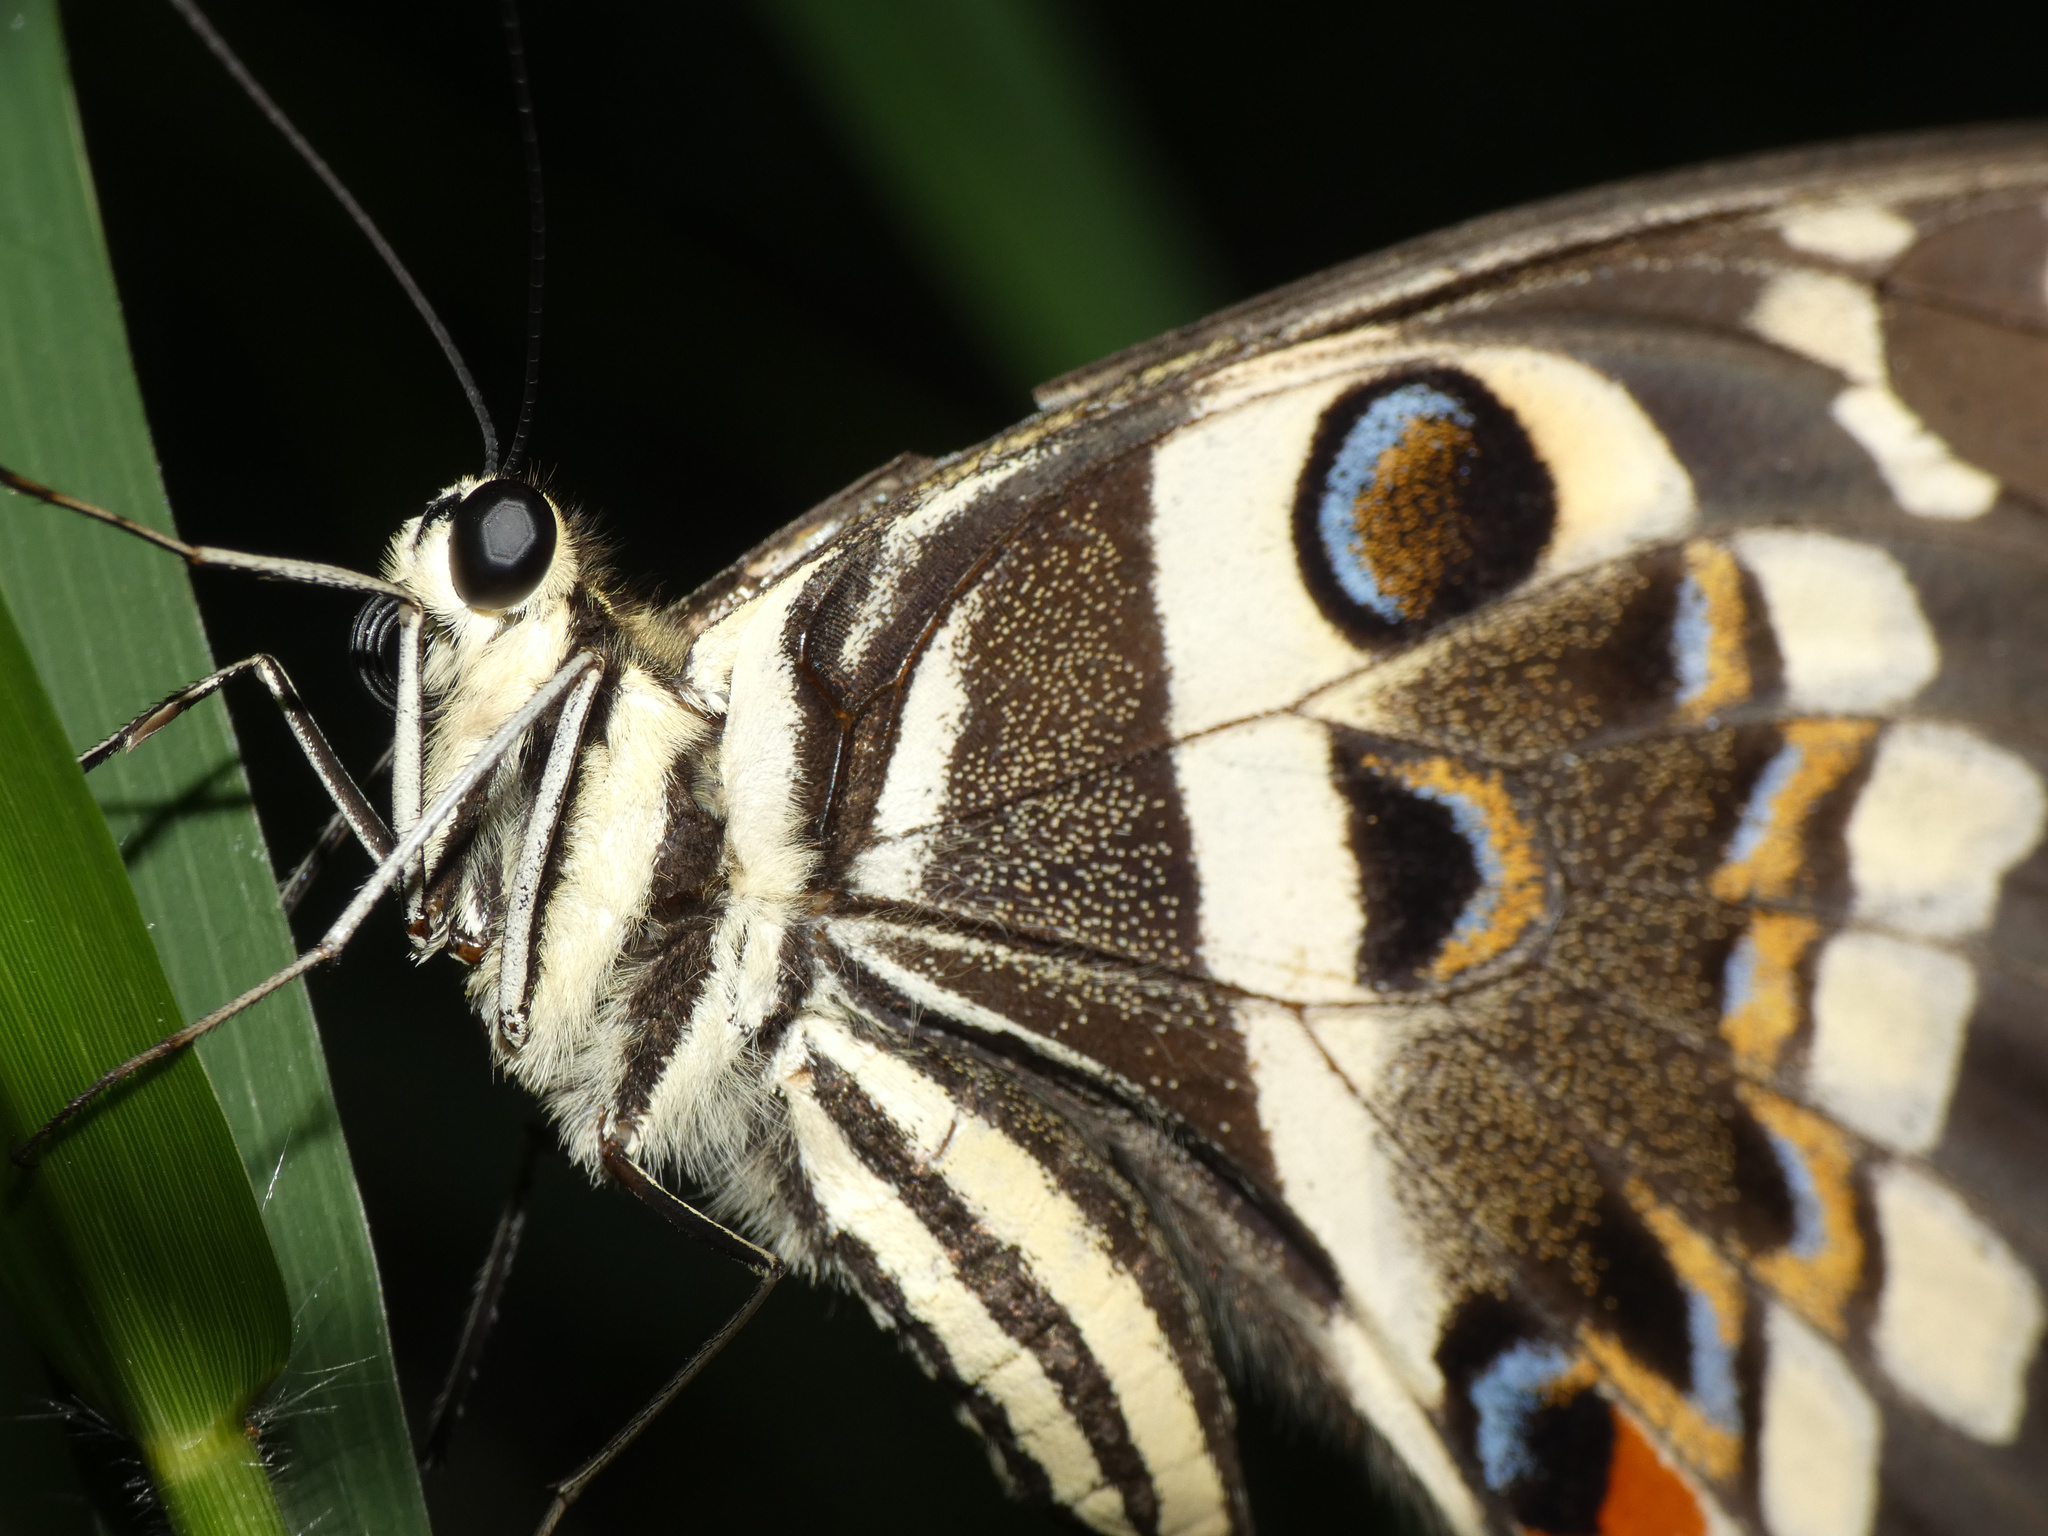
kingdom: Animalia
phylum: Arthropoda
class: Insecta
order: Lepidoptera
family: Papilionidae
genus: Papilio
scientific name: Papilio demodocus
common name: Christmas butterfly
